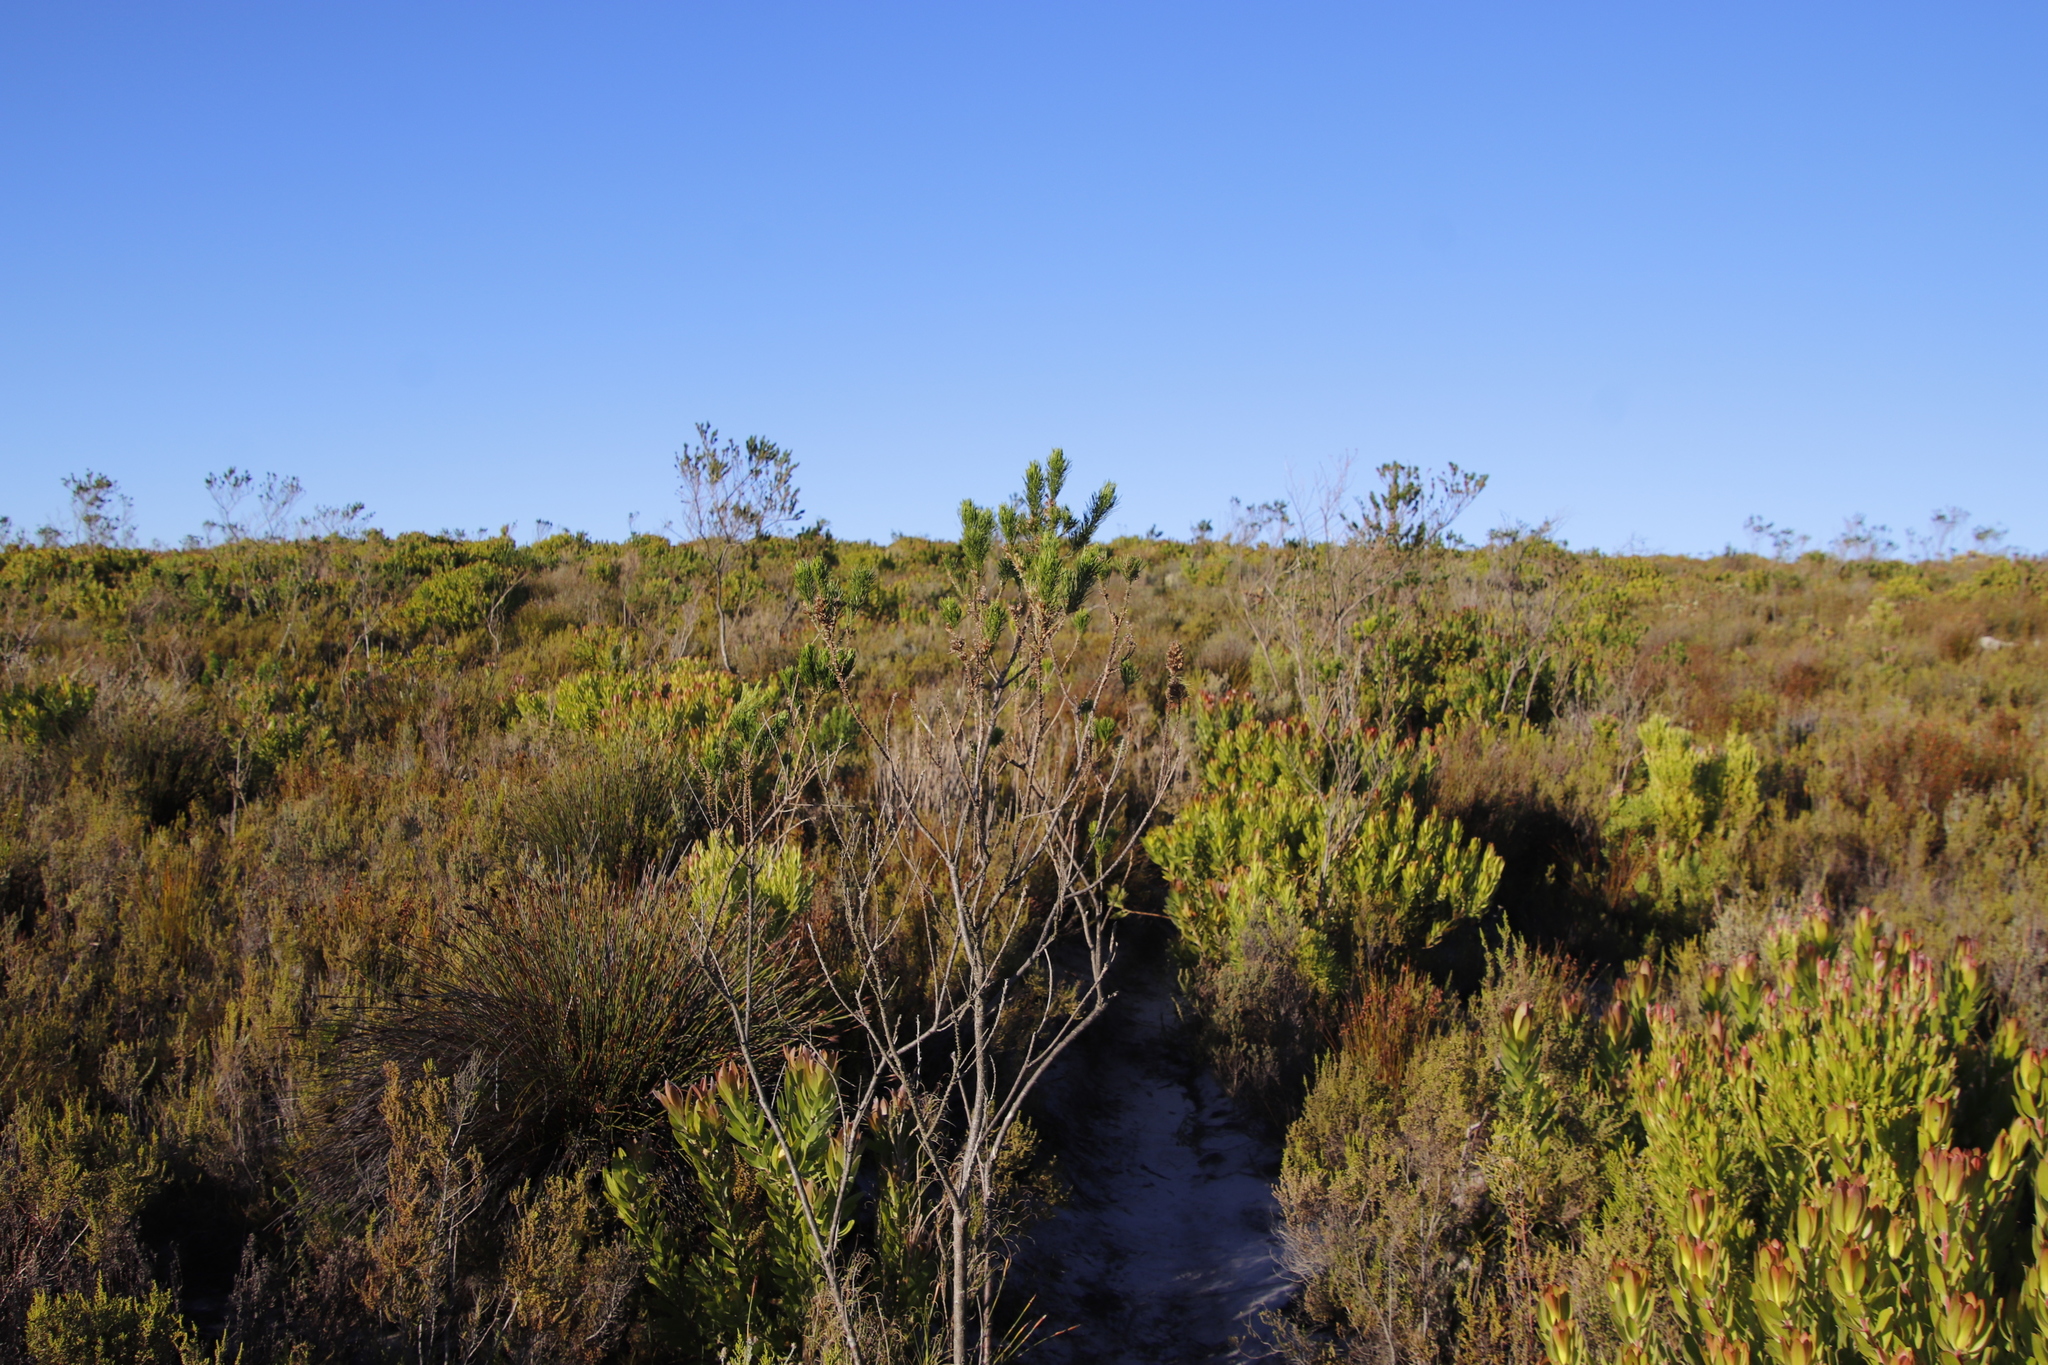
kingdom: Plantae
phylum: Tracheophyta
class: Magnoliopsida
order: Fabales
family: Fabaceae
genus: Psoralea
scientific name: Psoralea pinnata
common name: African scurfpea
